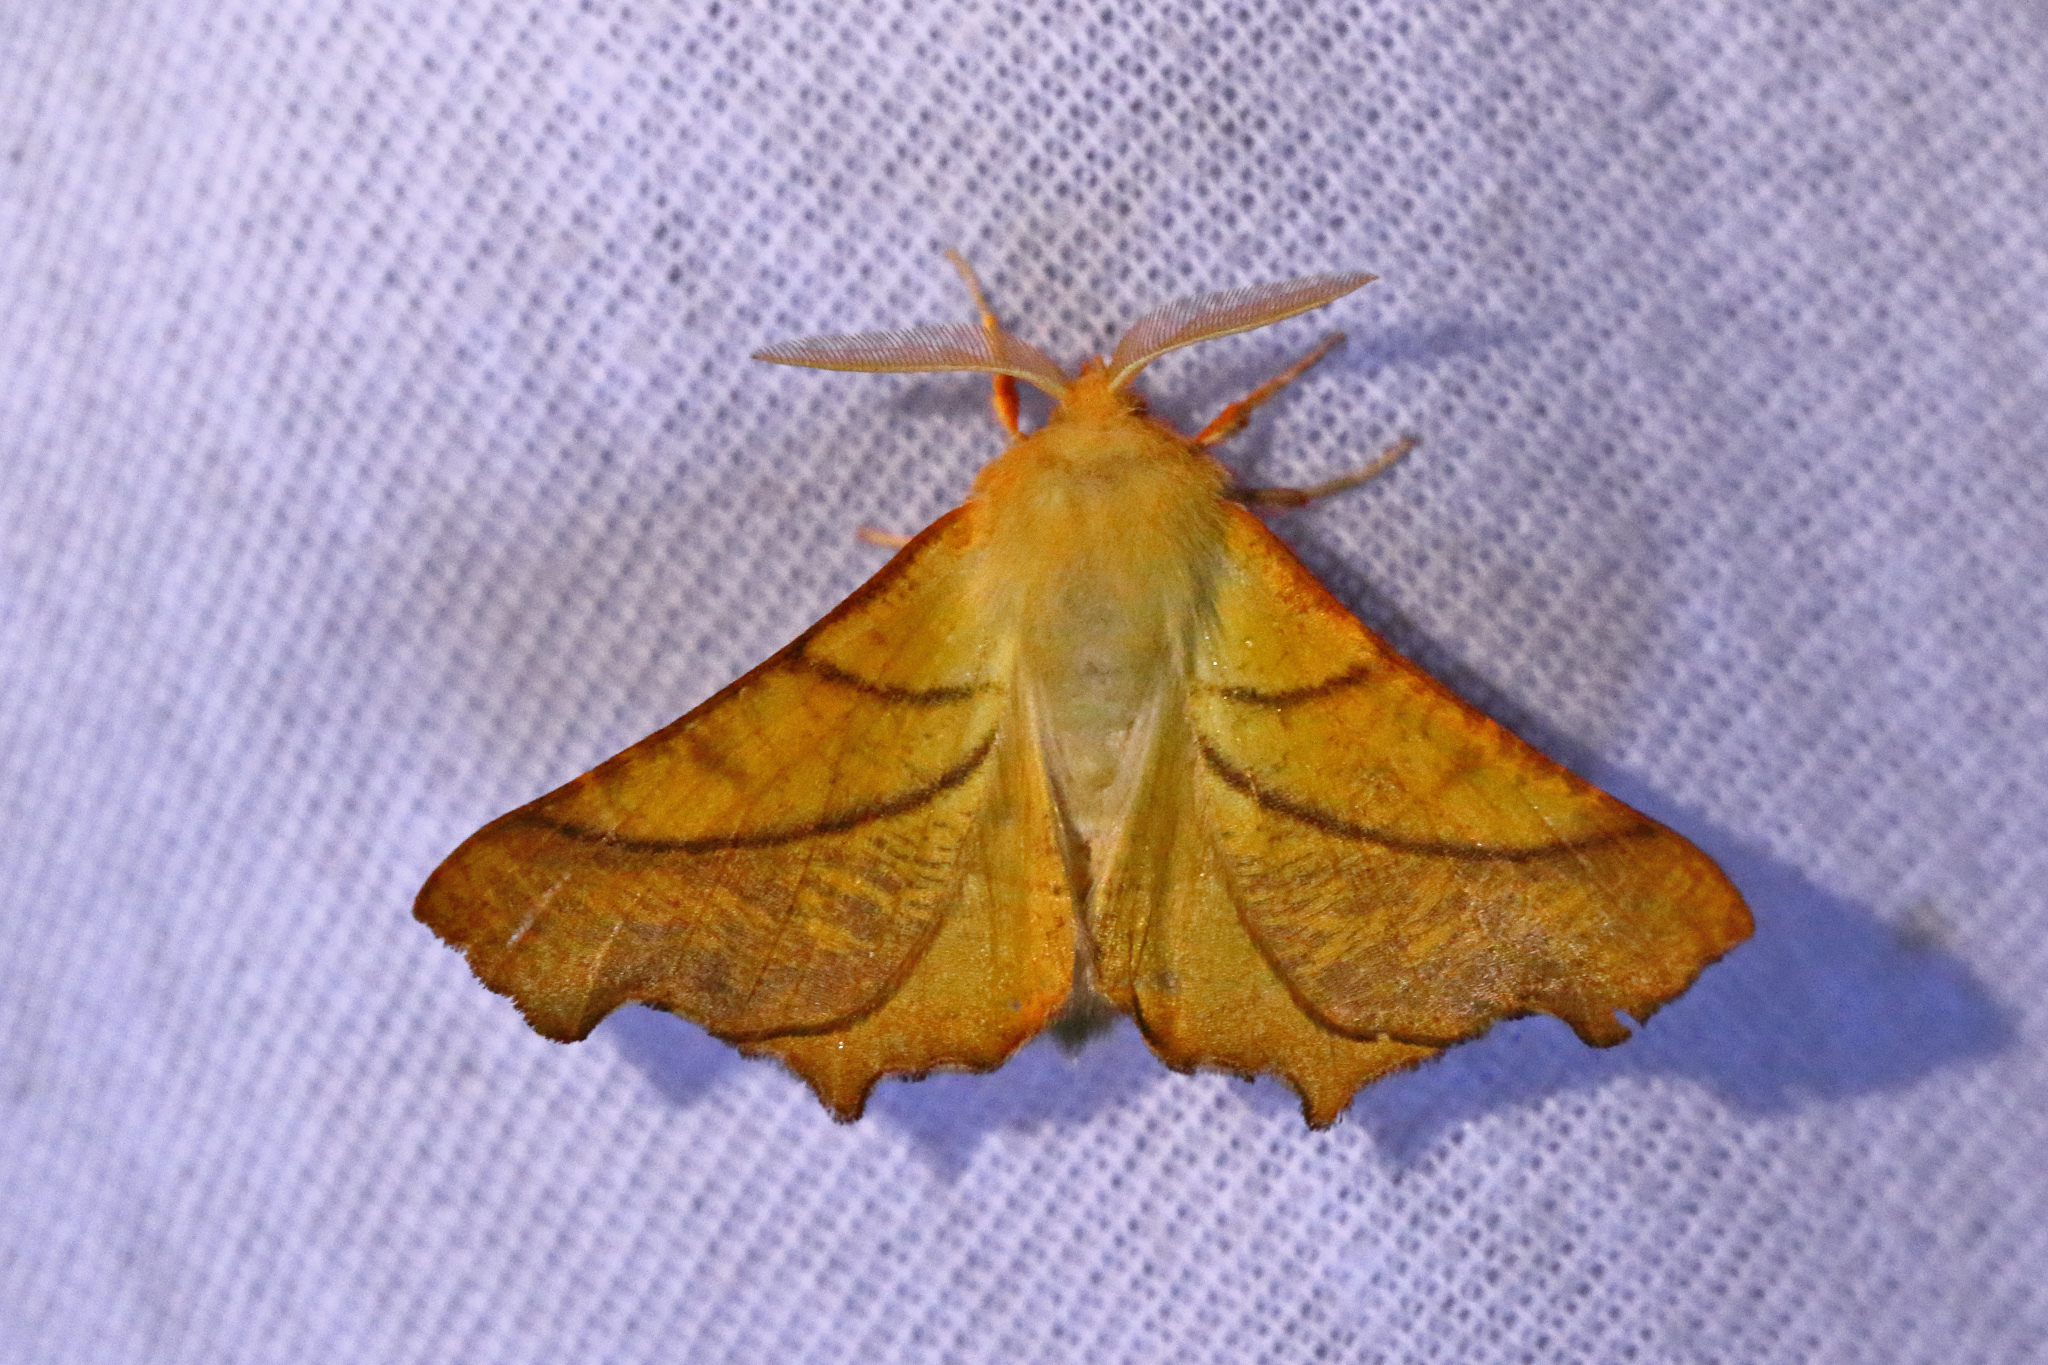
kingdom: Animalia
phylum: Arthropoda
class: Insecta
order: Lepidoptera
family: Geometridae
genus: Ennomos
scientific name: Ennomos fuscantaria
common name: Dusky thorn
